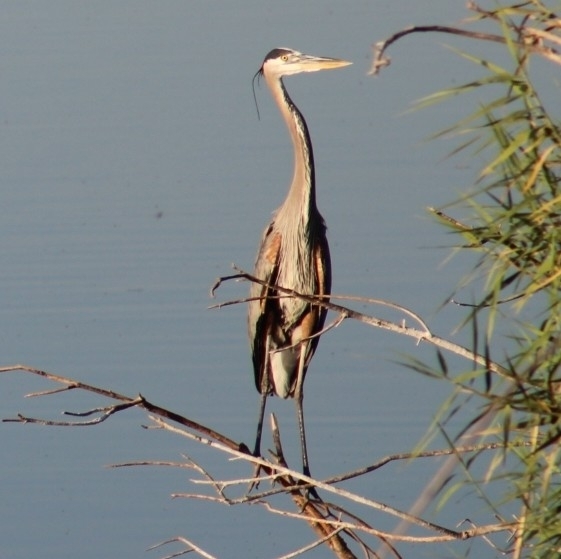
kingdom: Animalia
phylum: Chordata
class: Aves
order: Pelecaniformes
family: Ardeidae
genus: Ardea
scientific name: Ardea herodias
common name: Great blue heron
